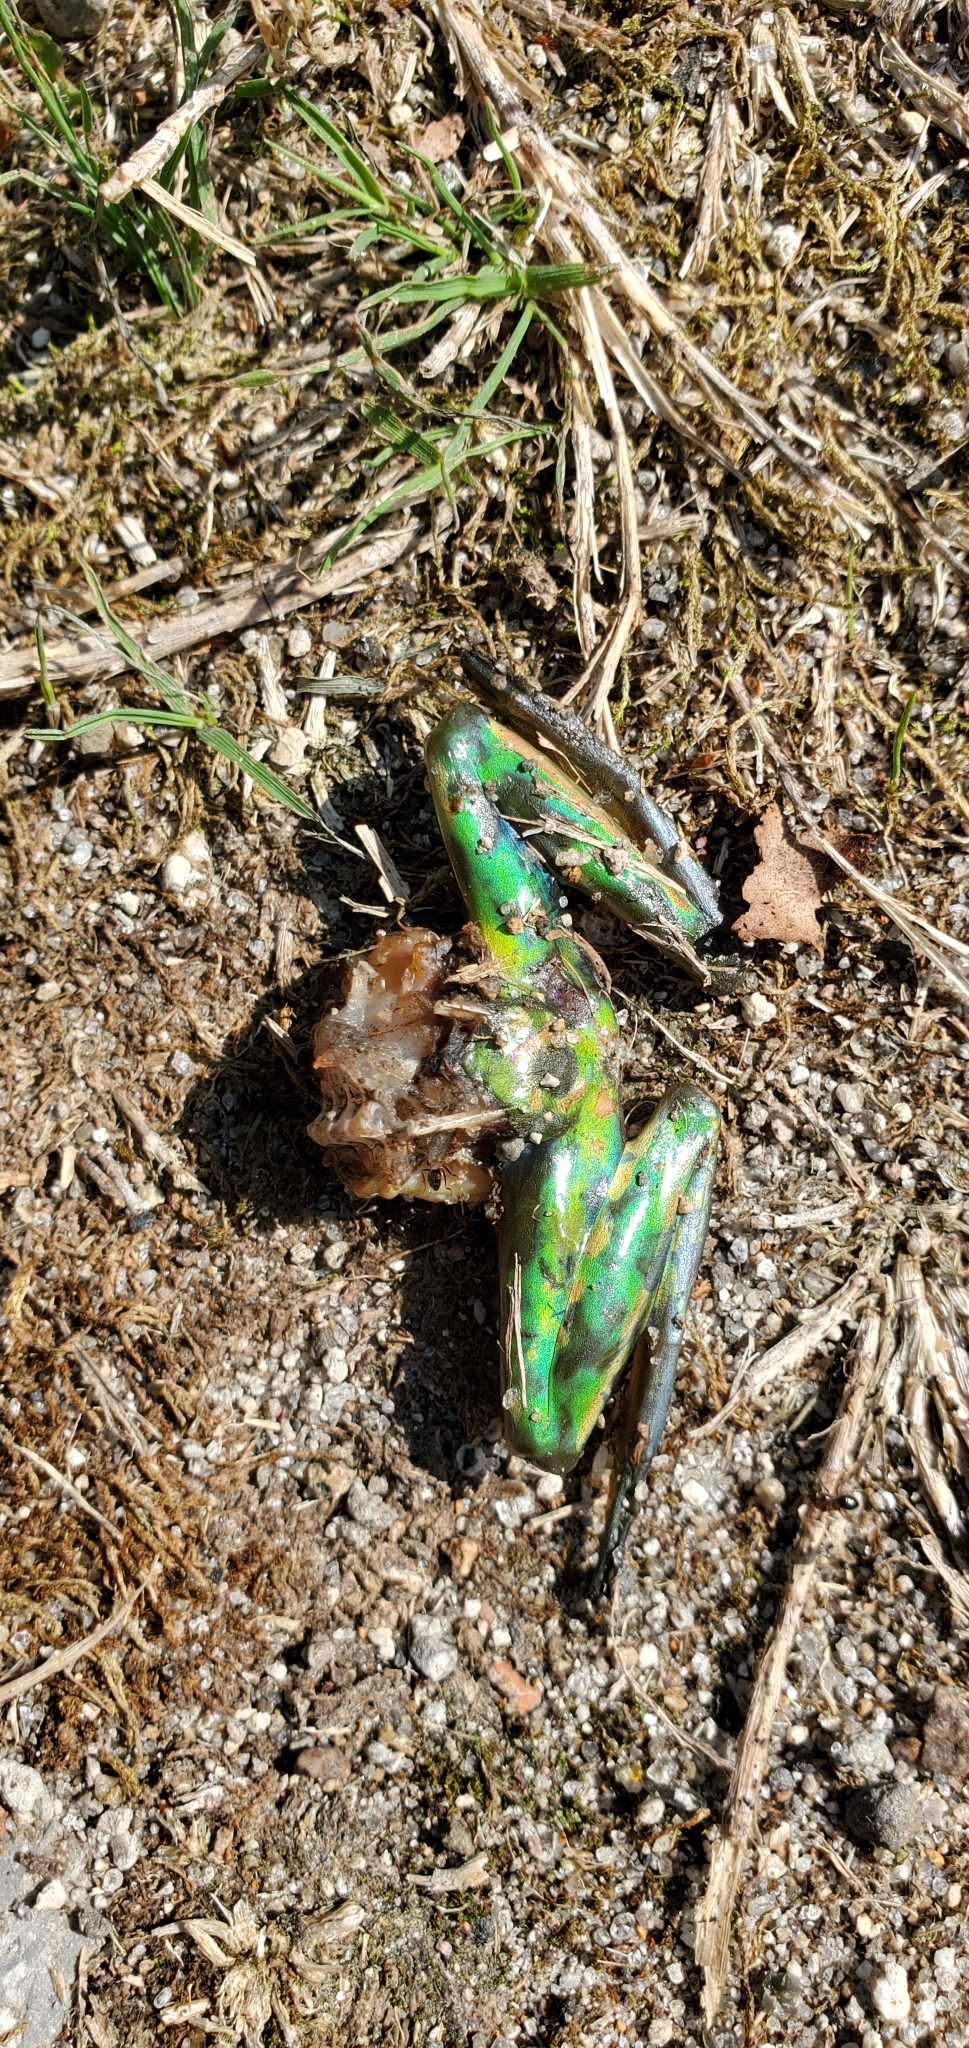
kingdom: Animalia
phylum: Chordata
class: Amphibia
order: Anura
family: Pelodryadidae
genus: Ranoidea
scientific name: Ranoidea aurea
